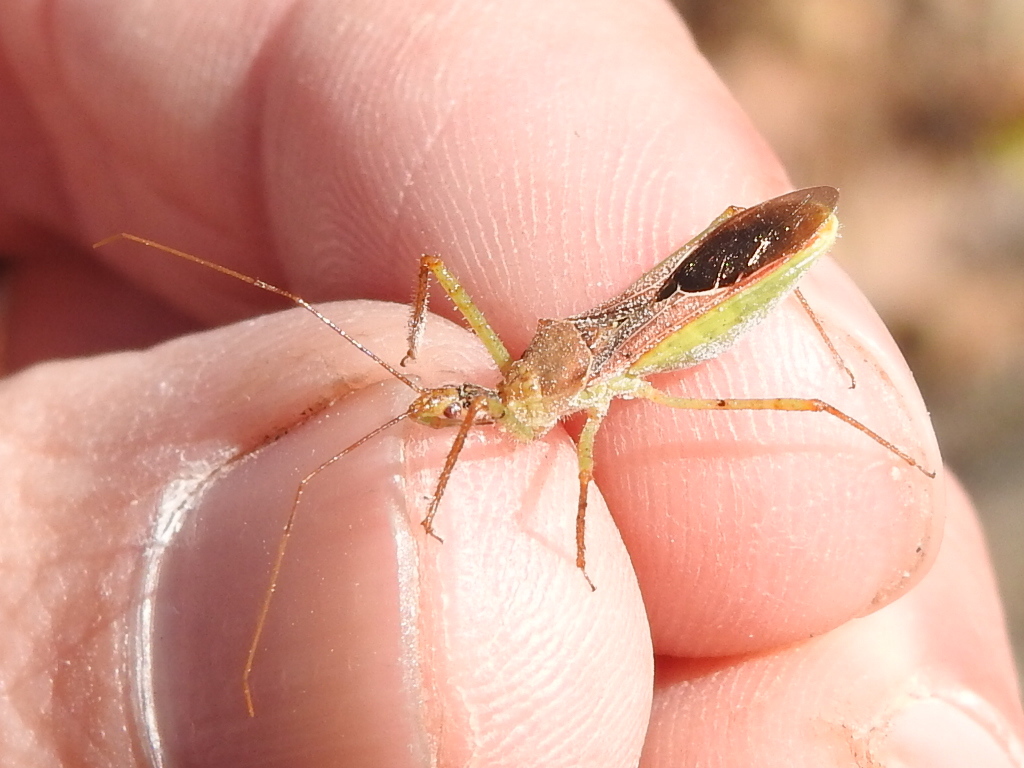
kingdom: Animalia
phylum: Arthropoda
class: Insecta
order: Hemiptera
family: Reduviidae
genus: Zelus
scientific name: Zelus renardii
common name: Assassin bug
